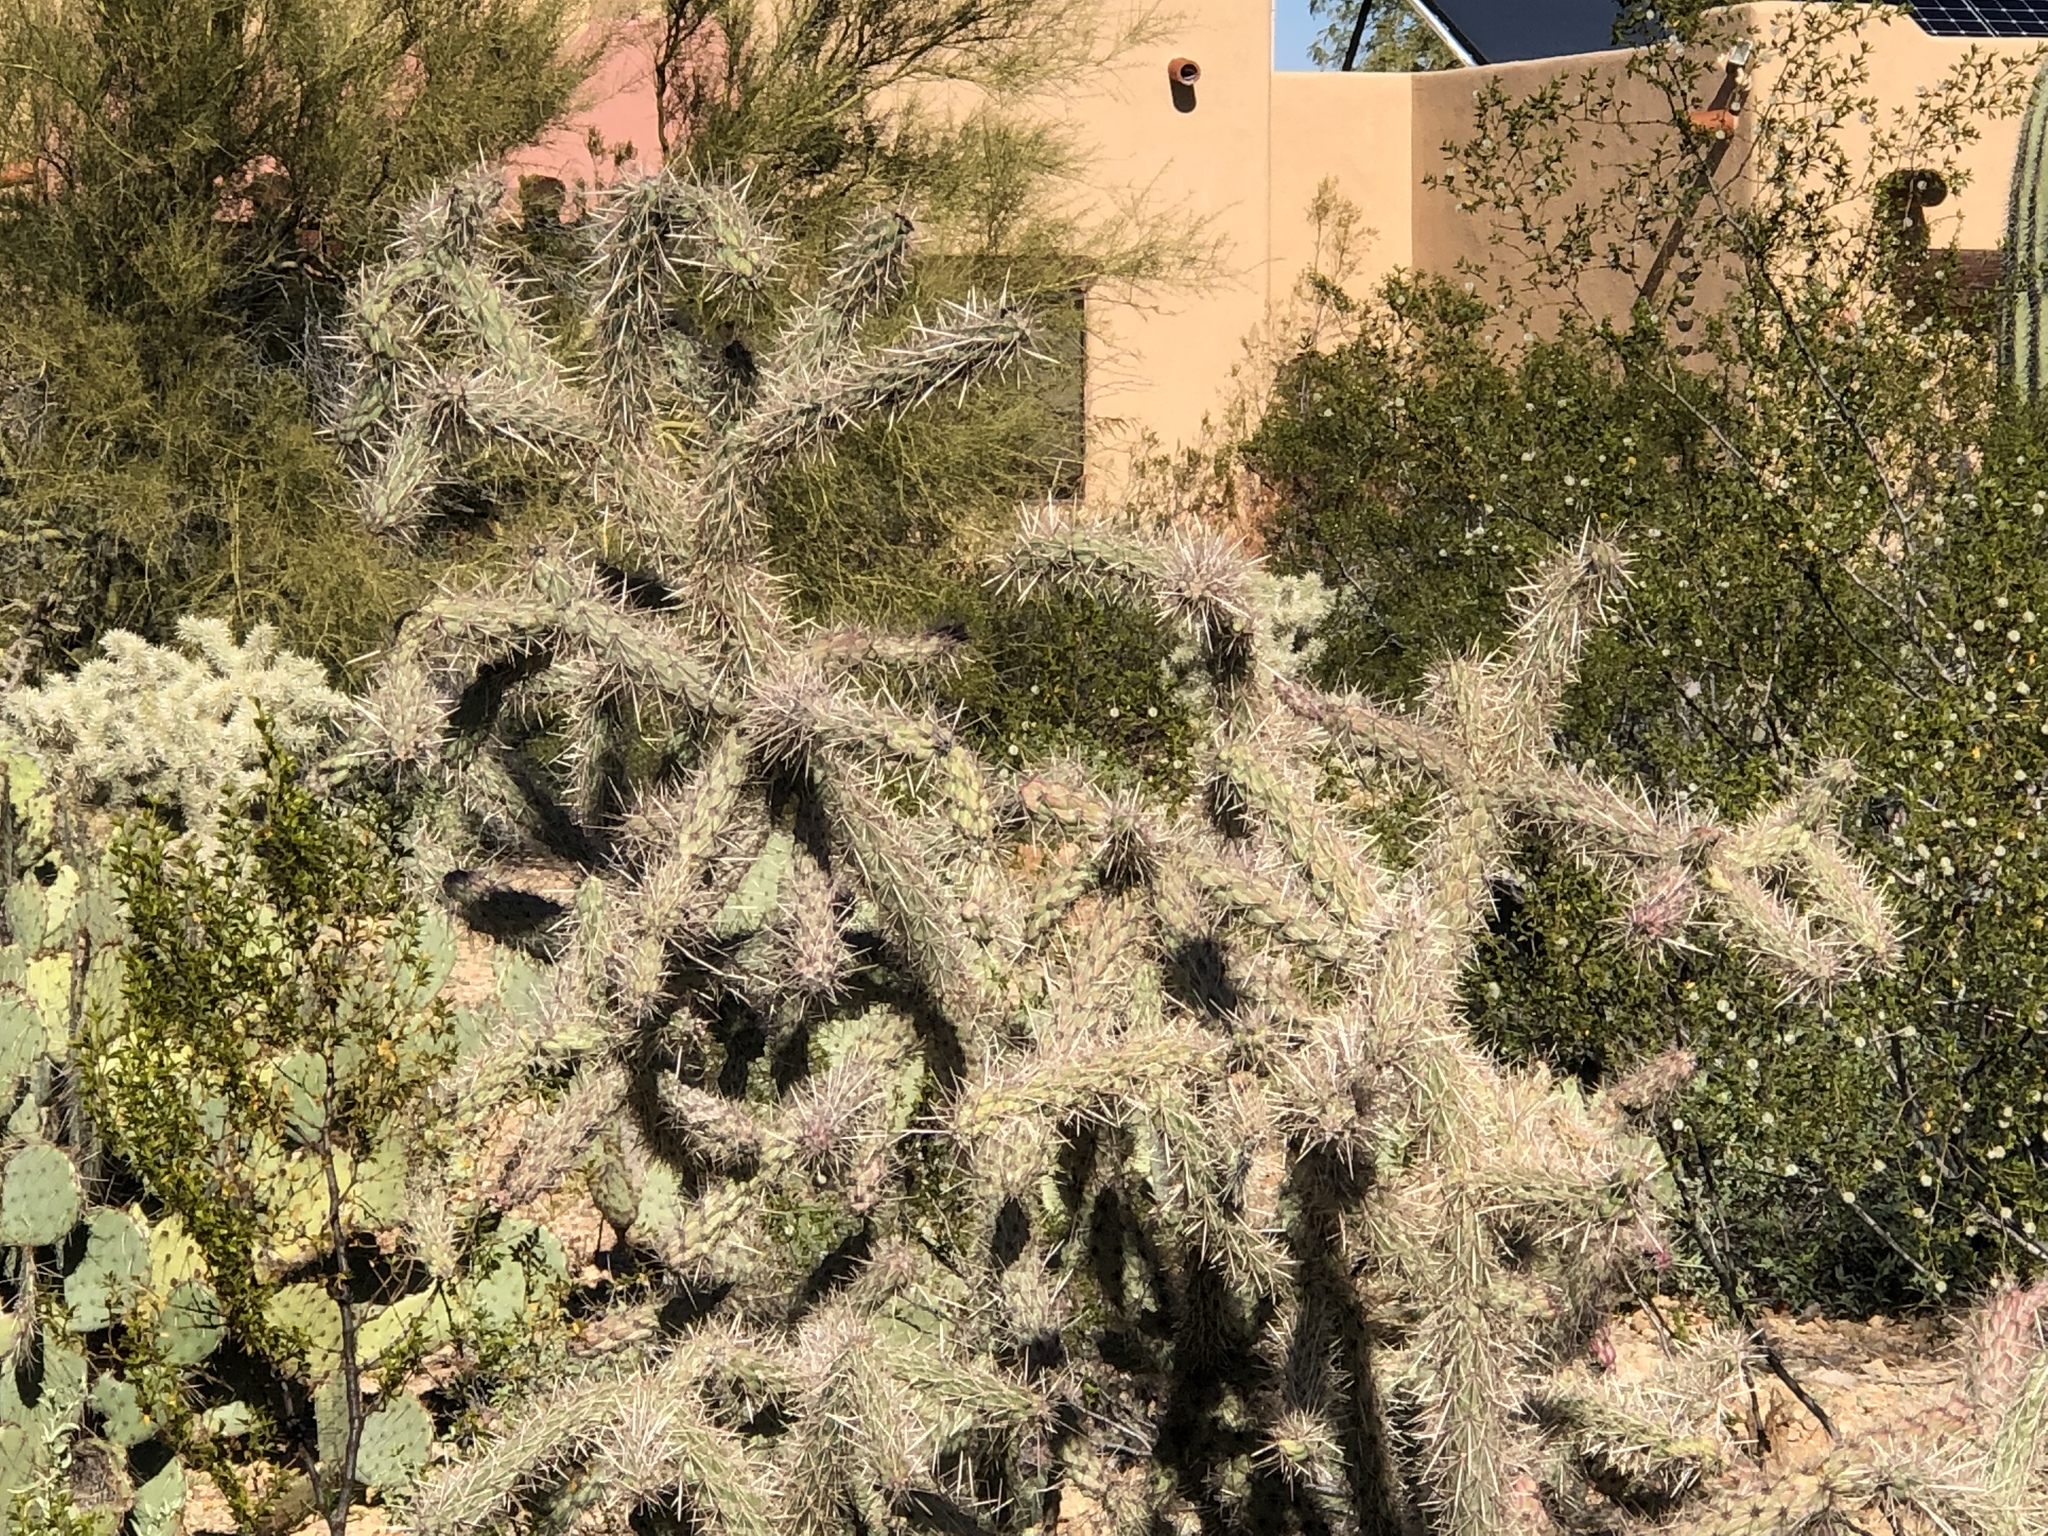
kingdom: Plantae
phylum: Tracheophyta
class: Magnoliopsida
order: Caryophyllales
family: Cactaceae
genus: Cylindropuntia
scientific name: Cylindropuntia imbricata
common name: Candelabrum cactus
